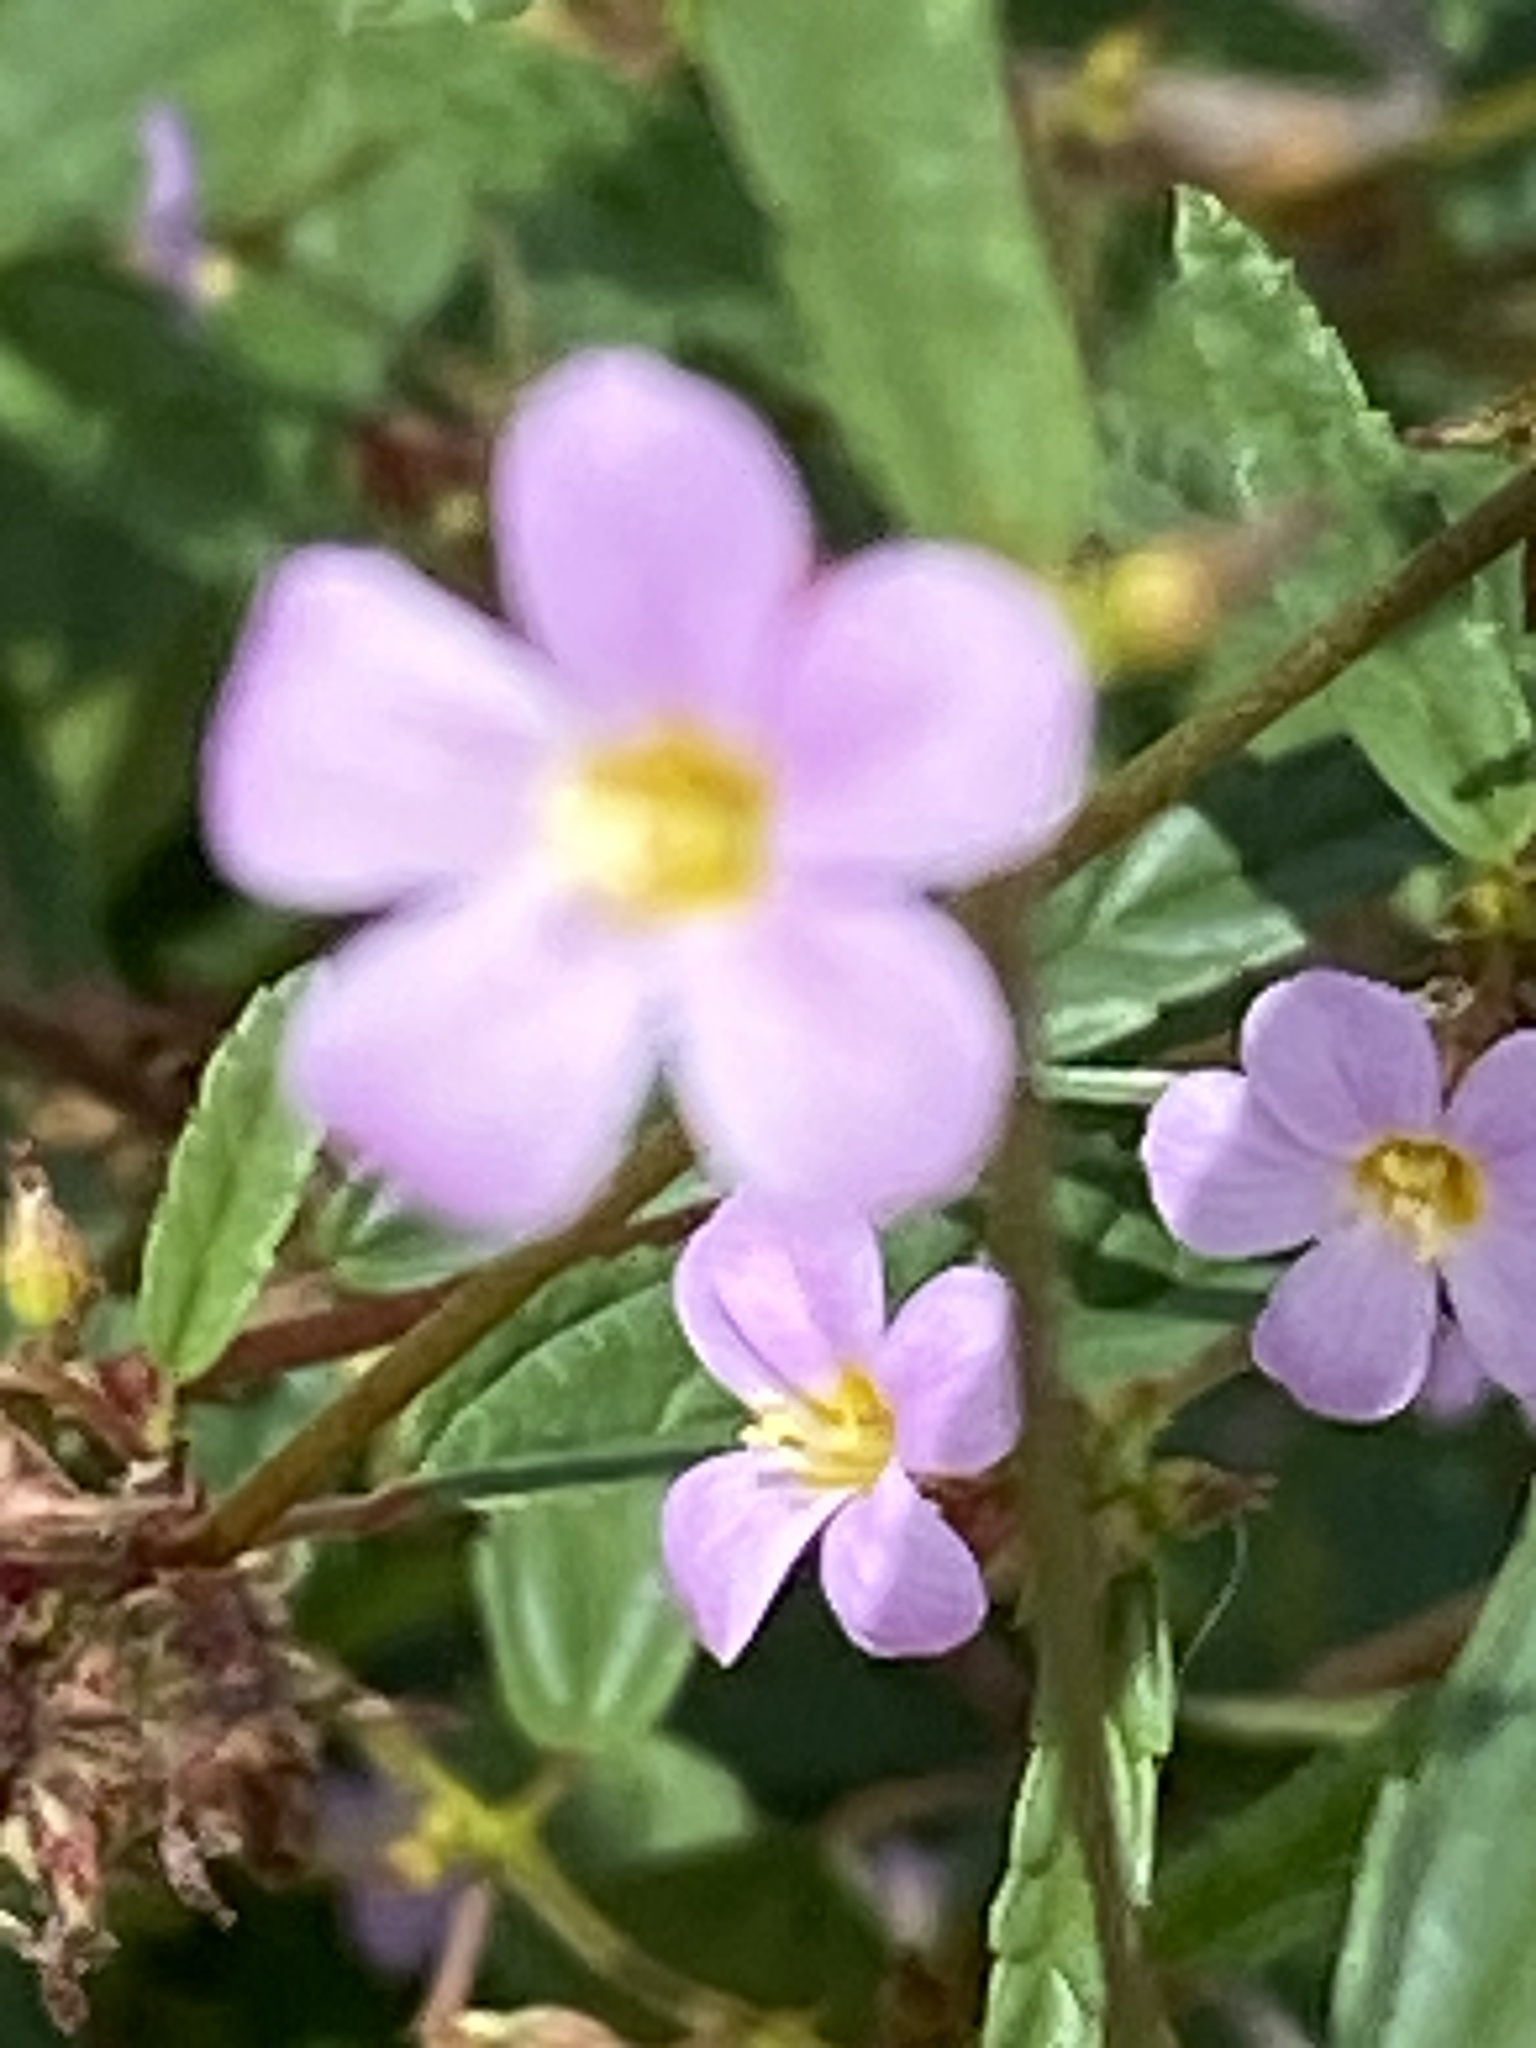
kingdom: Plantae
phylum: Tracheophyta
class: Magnoliopsida
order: Malvales
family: Malvaceae
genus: Melochia
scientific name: Melochia pyramidata
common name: Pyramidflower
